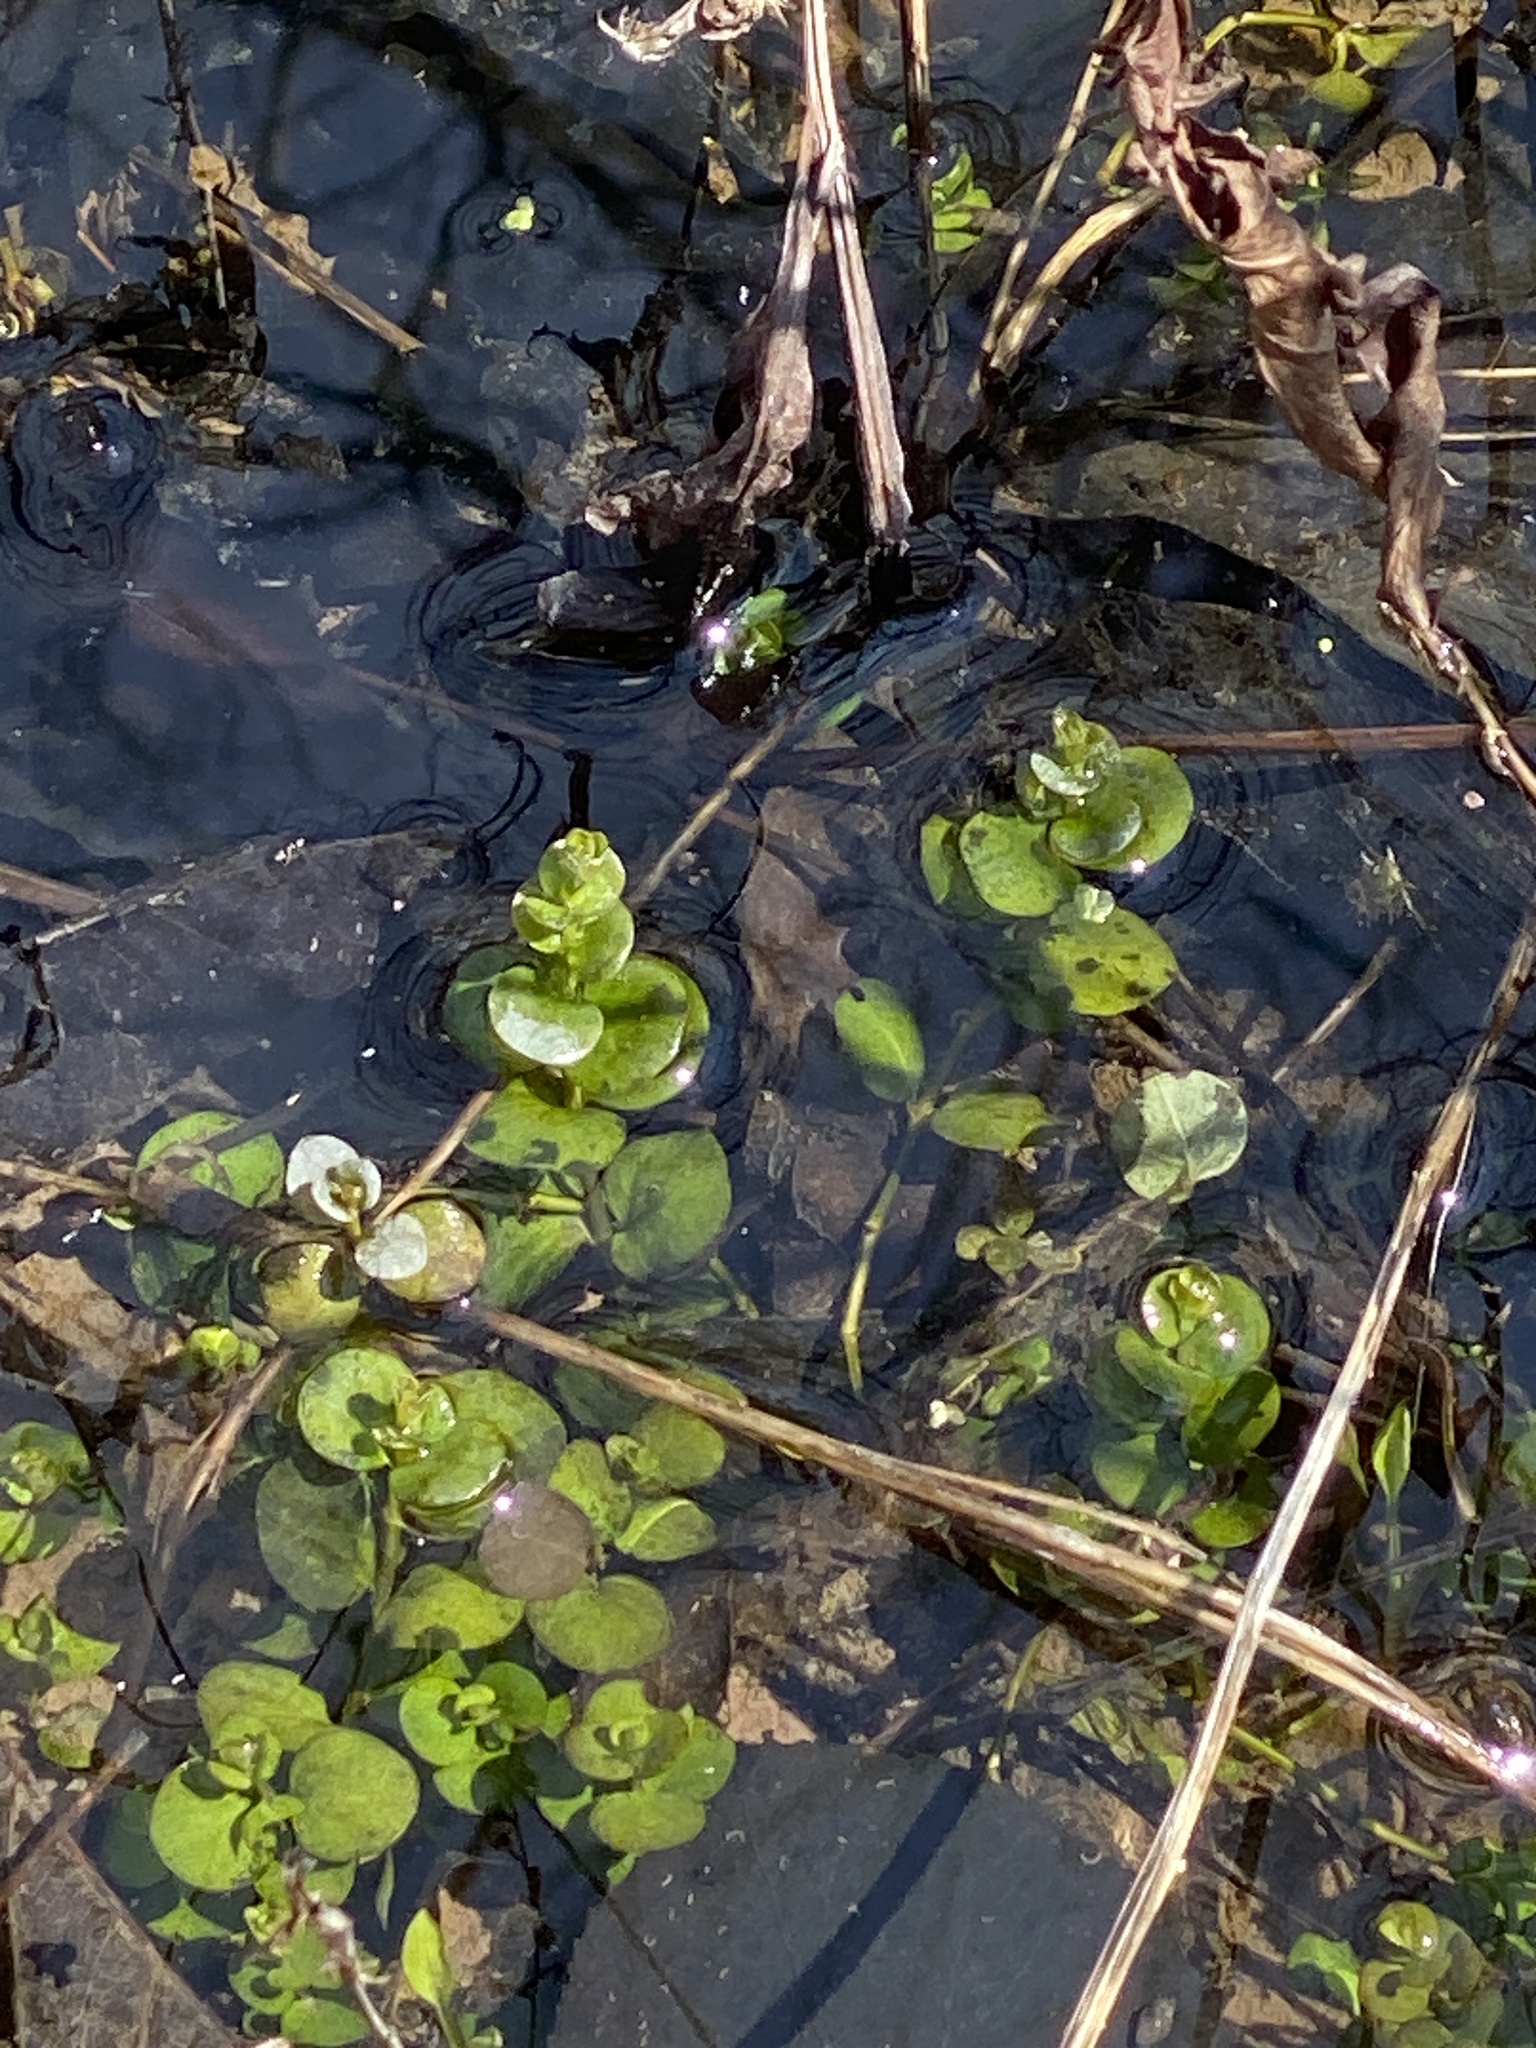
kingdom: Plantae
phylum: Tracheophyta
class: Magnoliopsida
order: Ericales
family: Primulaceae
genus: Lysimachia
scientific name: Lysimachia nummularia
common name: Moneywort
